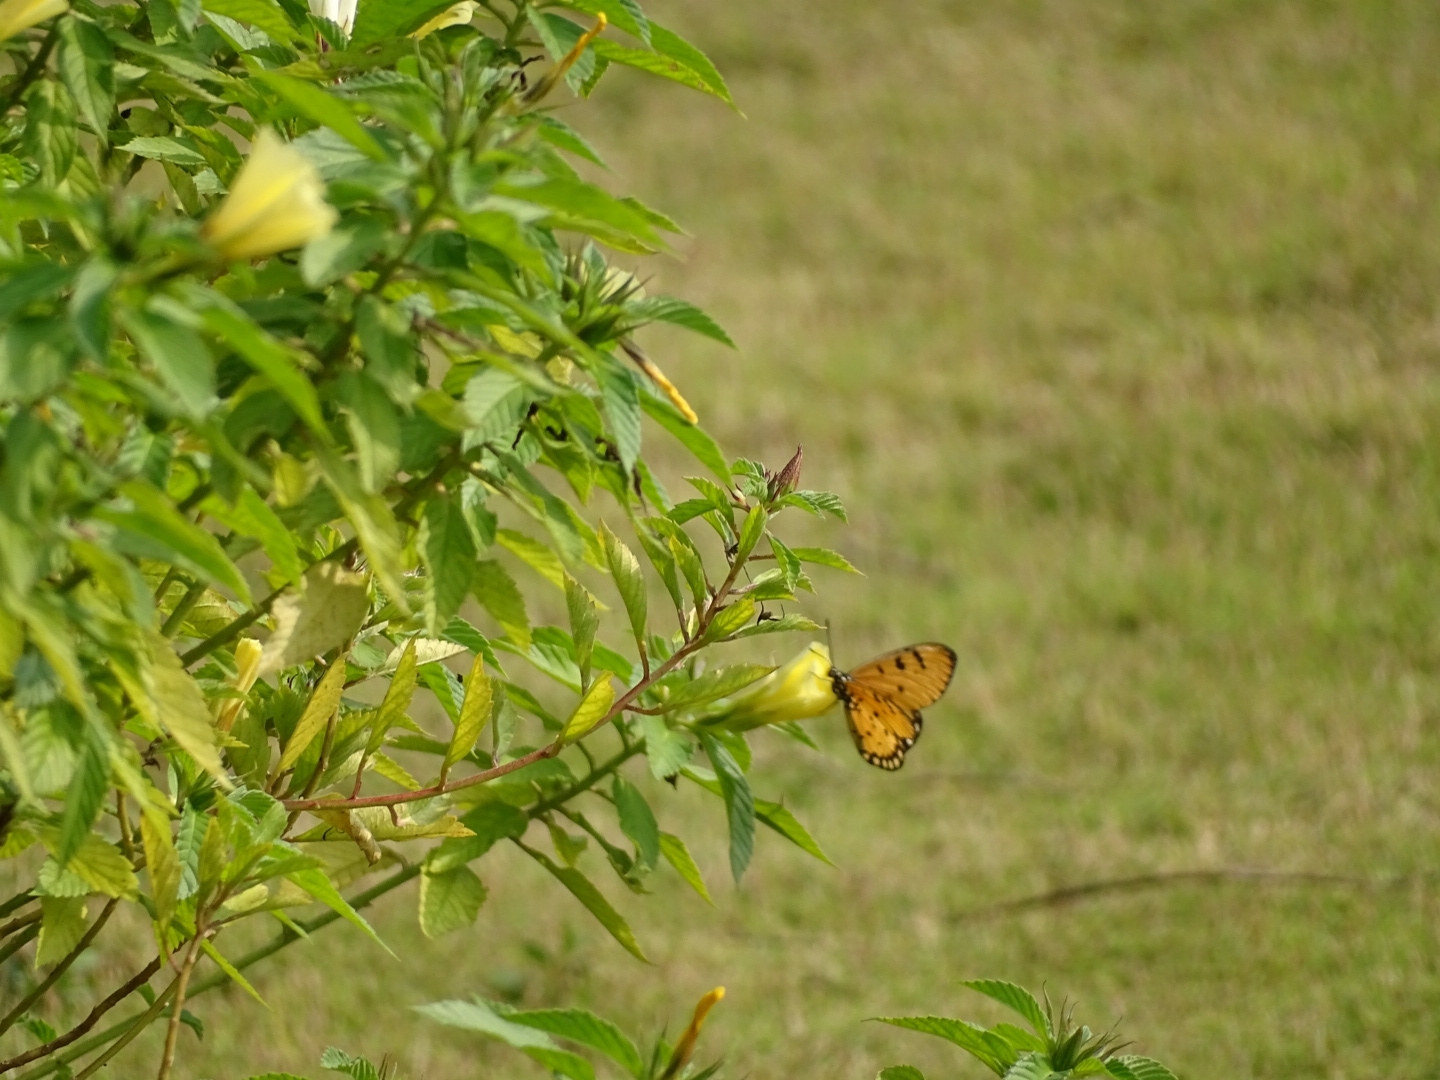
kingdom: Animalia
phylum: Arthropoda
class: Insecta
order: Lepidoptera
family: Nymphalidae
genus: Acraea
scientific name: Acraea terpsicore
